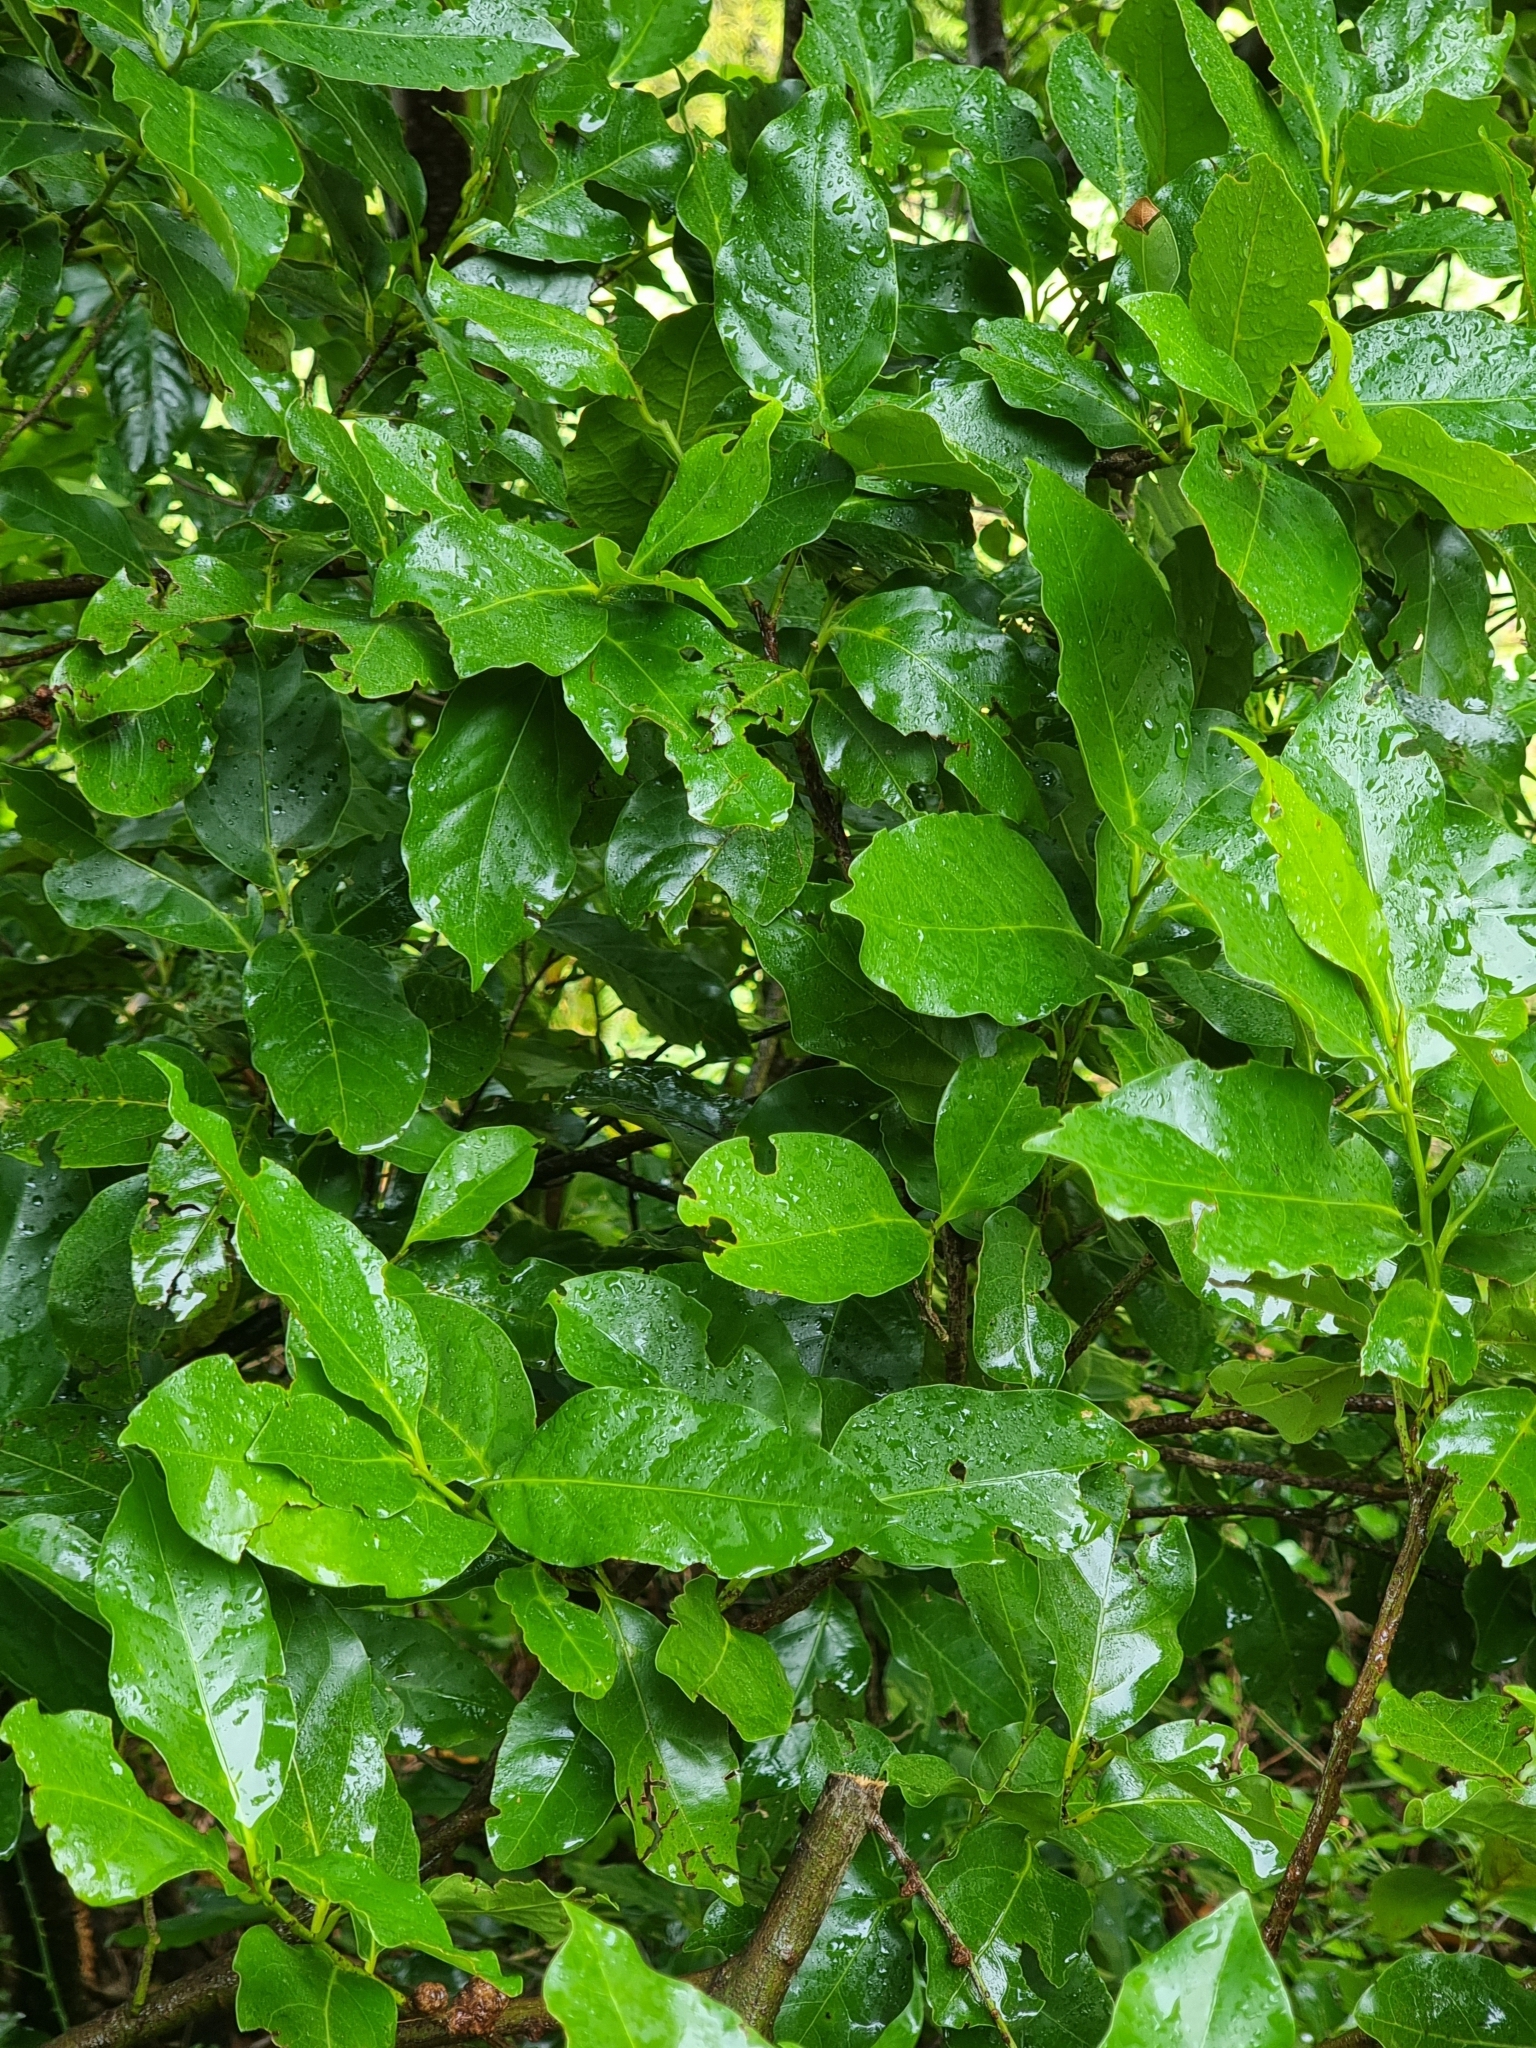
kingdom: Plantae
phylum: Tracheophyta
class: Magnoliopsida
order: Laurales
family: Lauraceae
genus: Mespilodaphne
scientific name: Mespilodaphne foetens
